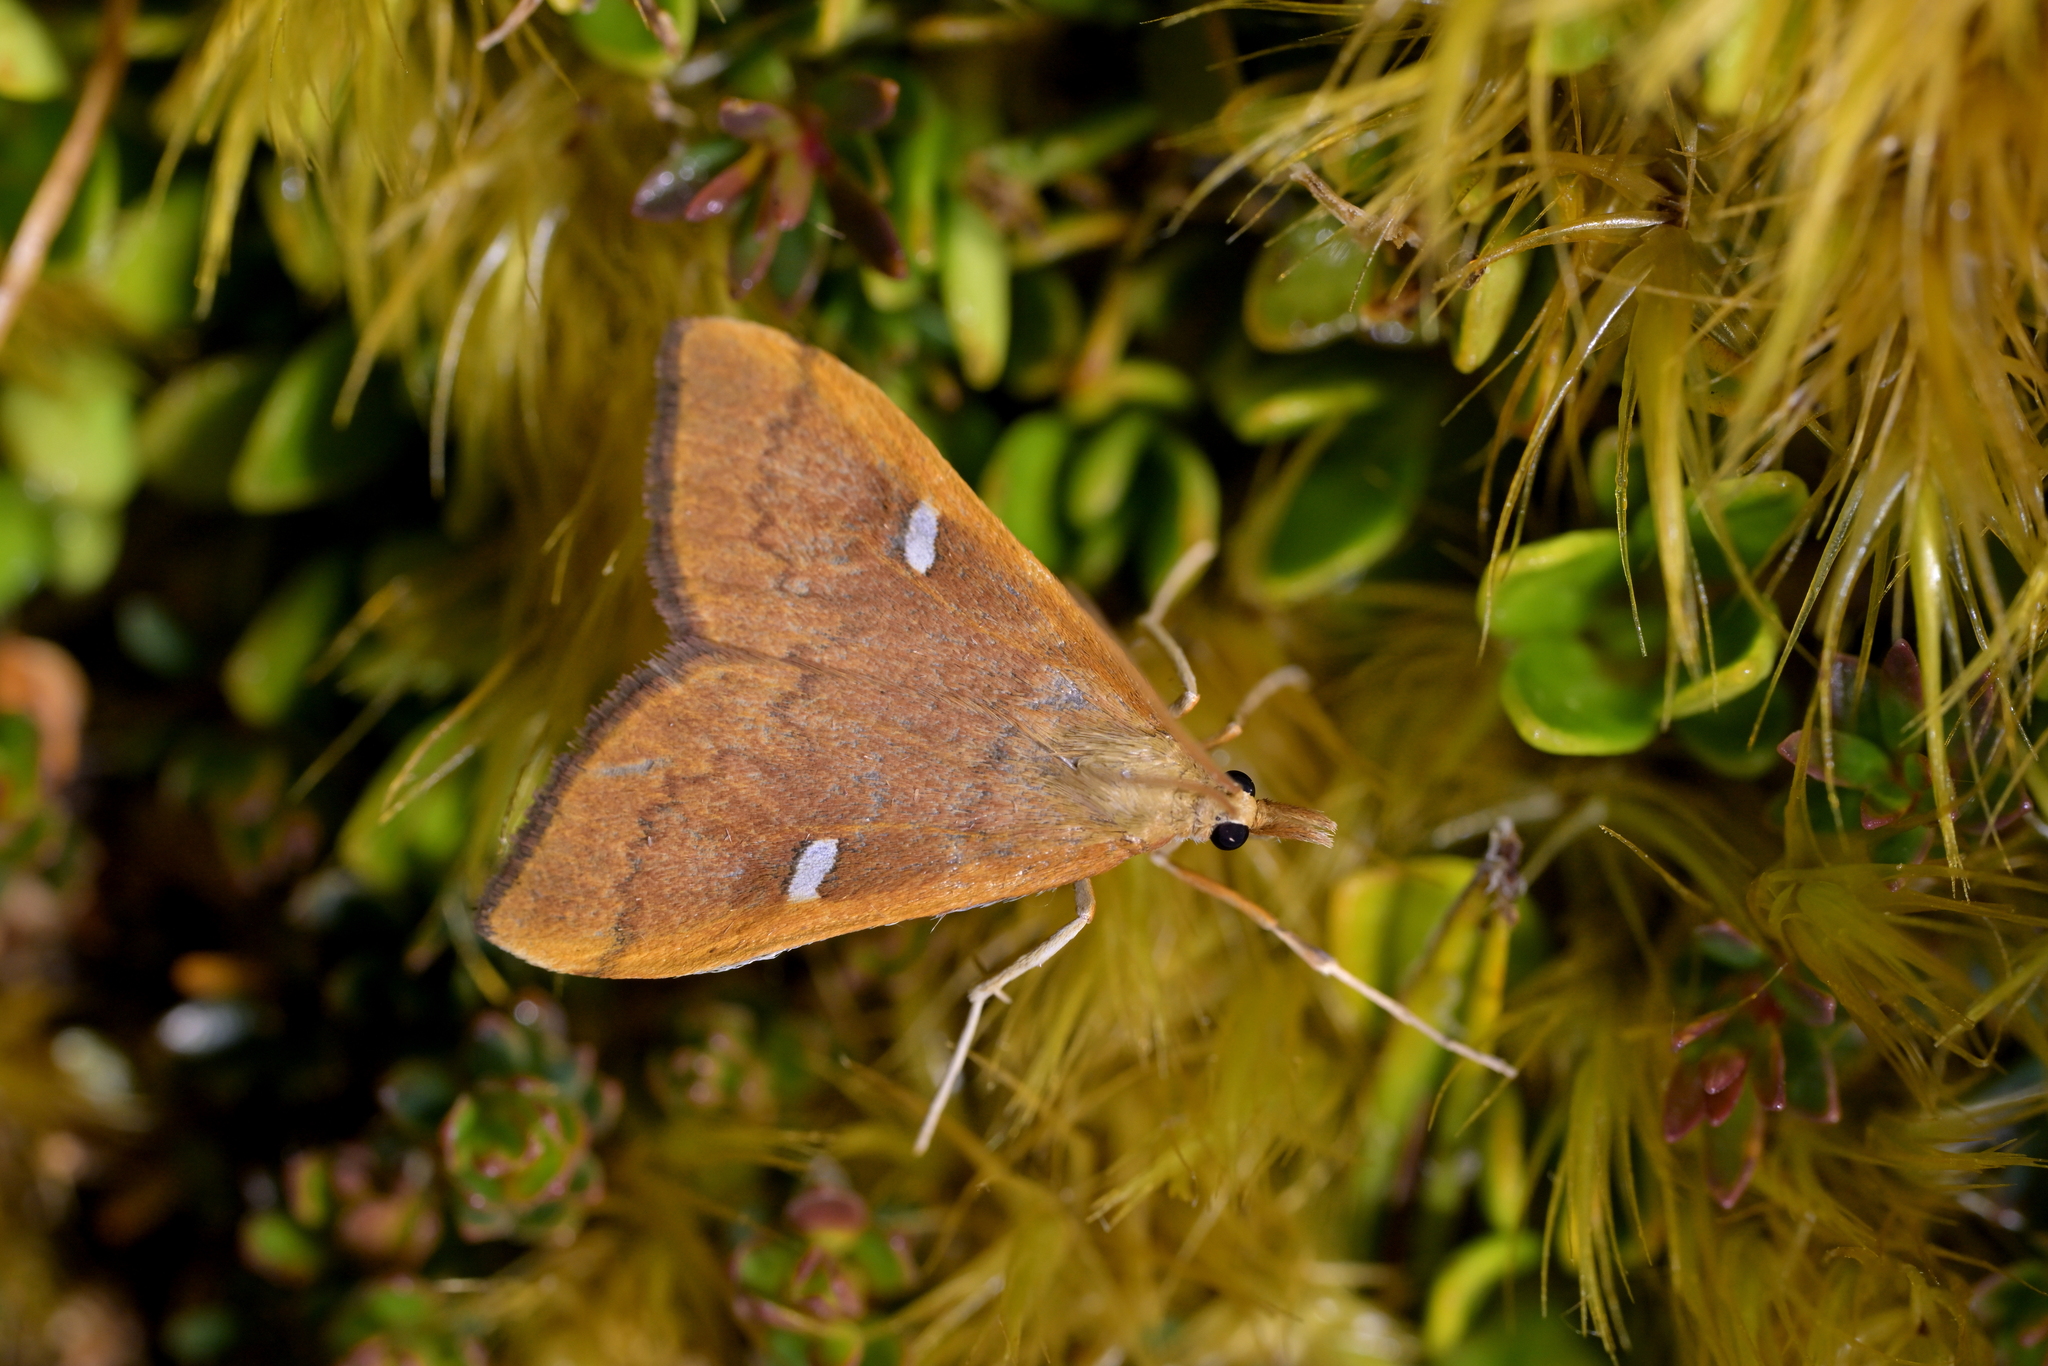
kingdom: Animalia
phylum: Arthropoda
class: Insecta
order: Lepidoptera
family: Crambidae
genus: Udea
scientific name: Udea notata
